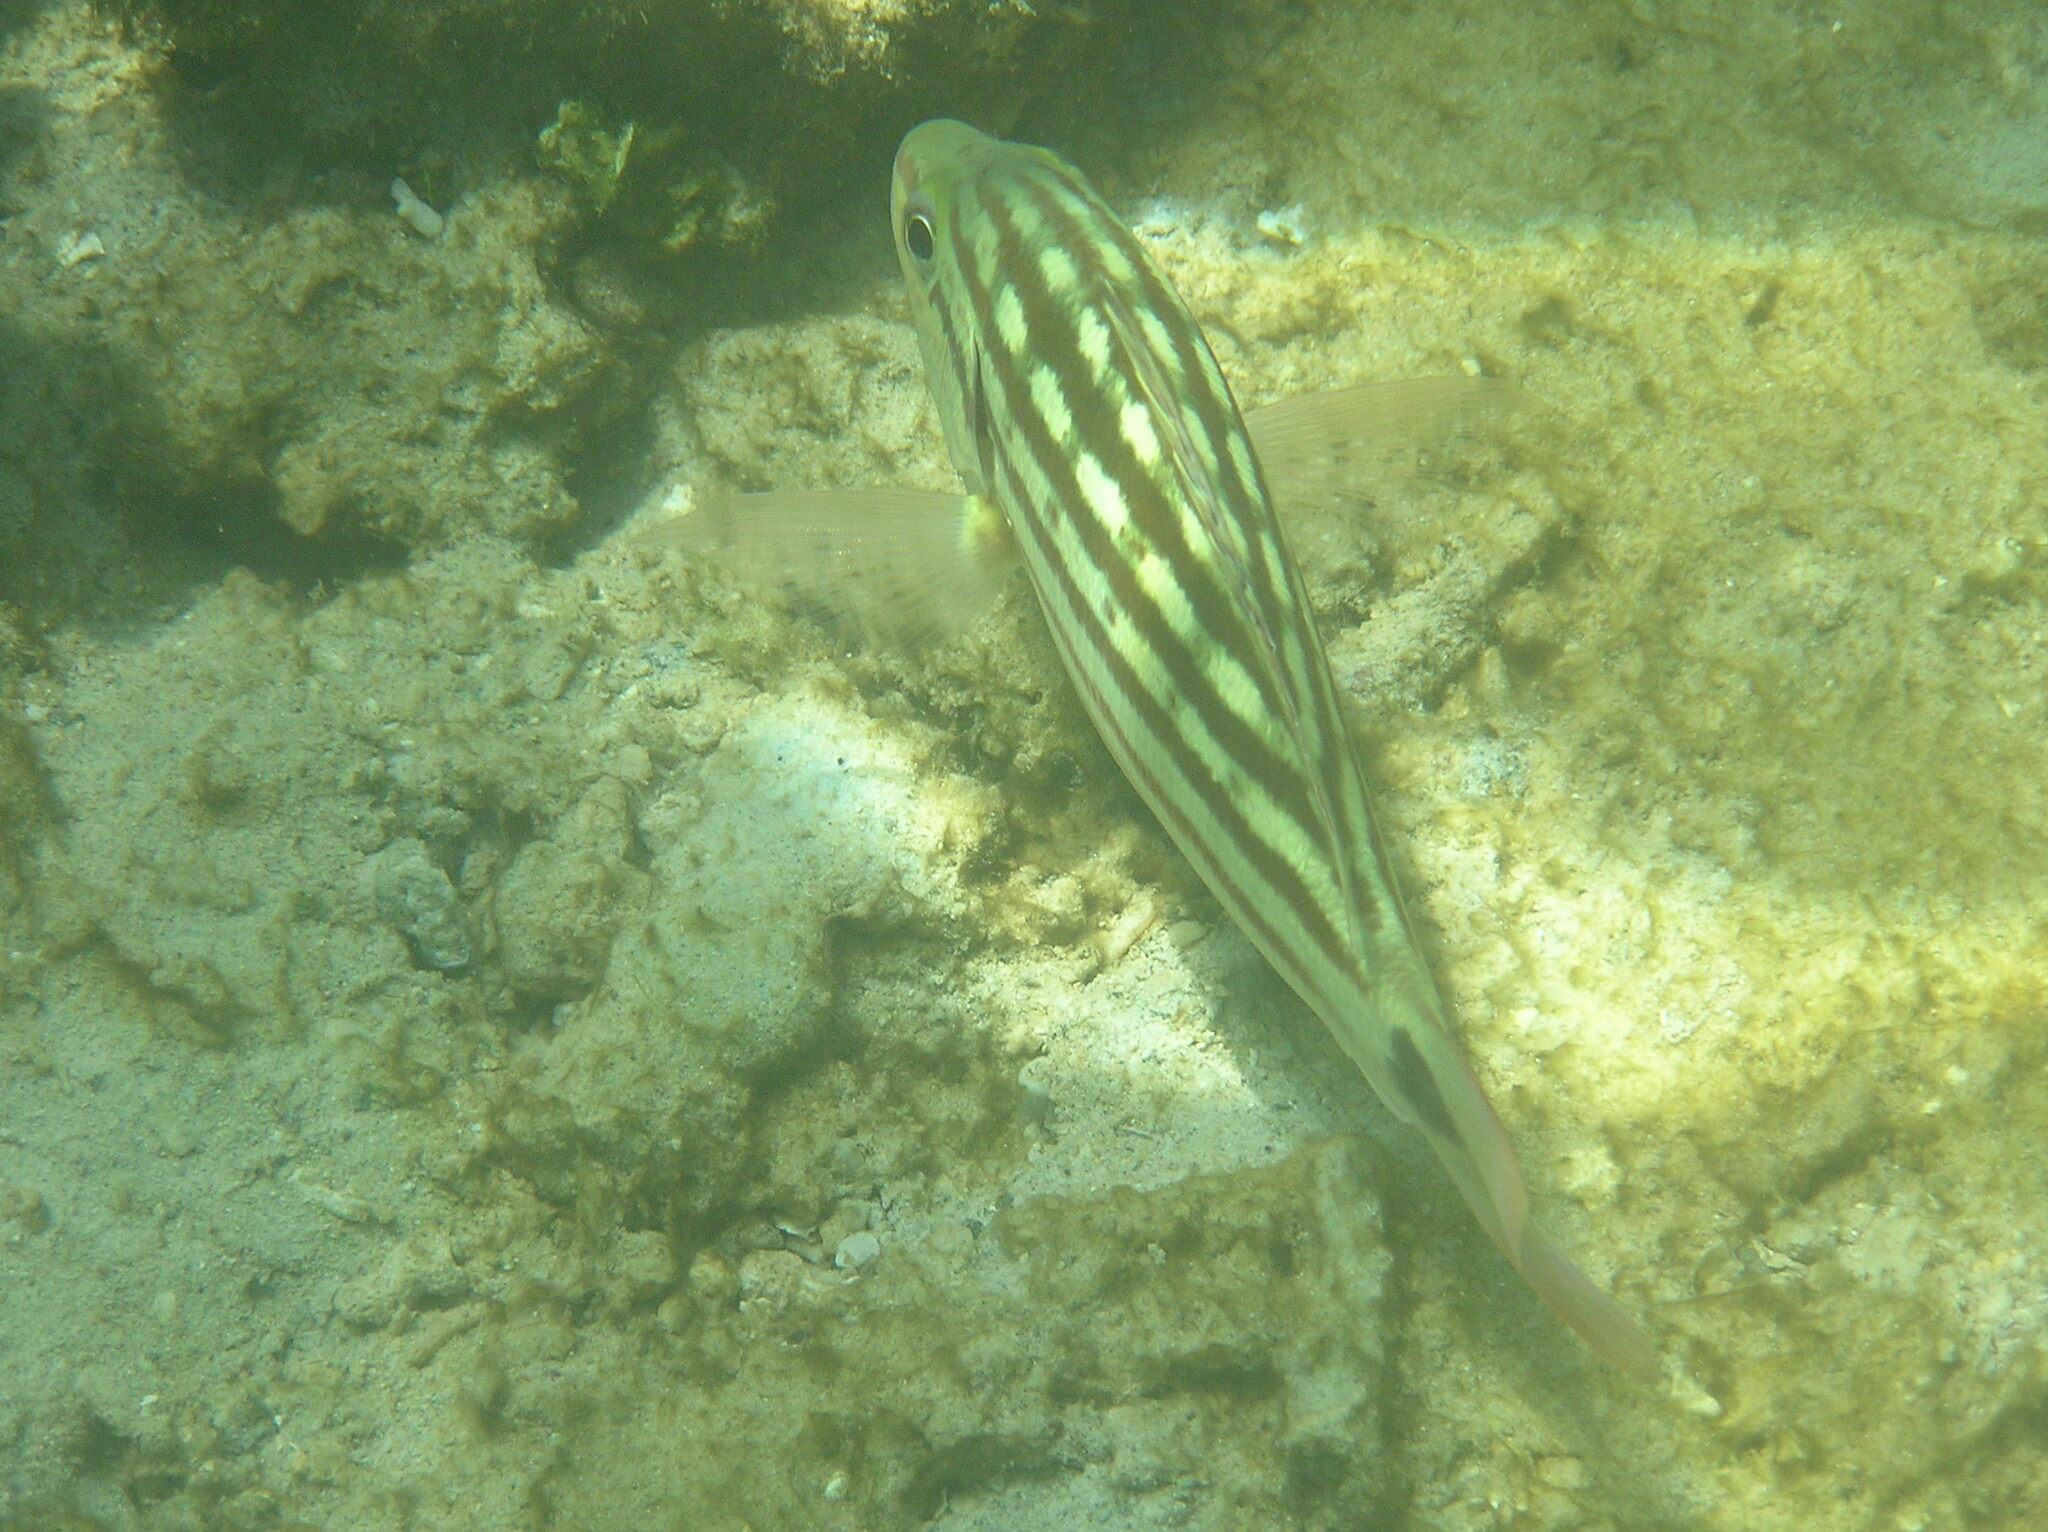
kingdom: Animalia
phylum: Chordata
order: Perciformes
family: Lutjanidae
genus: Lutjanus
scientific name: Lutjanus decussatus
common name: Checkered snapper
